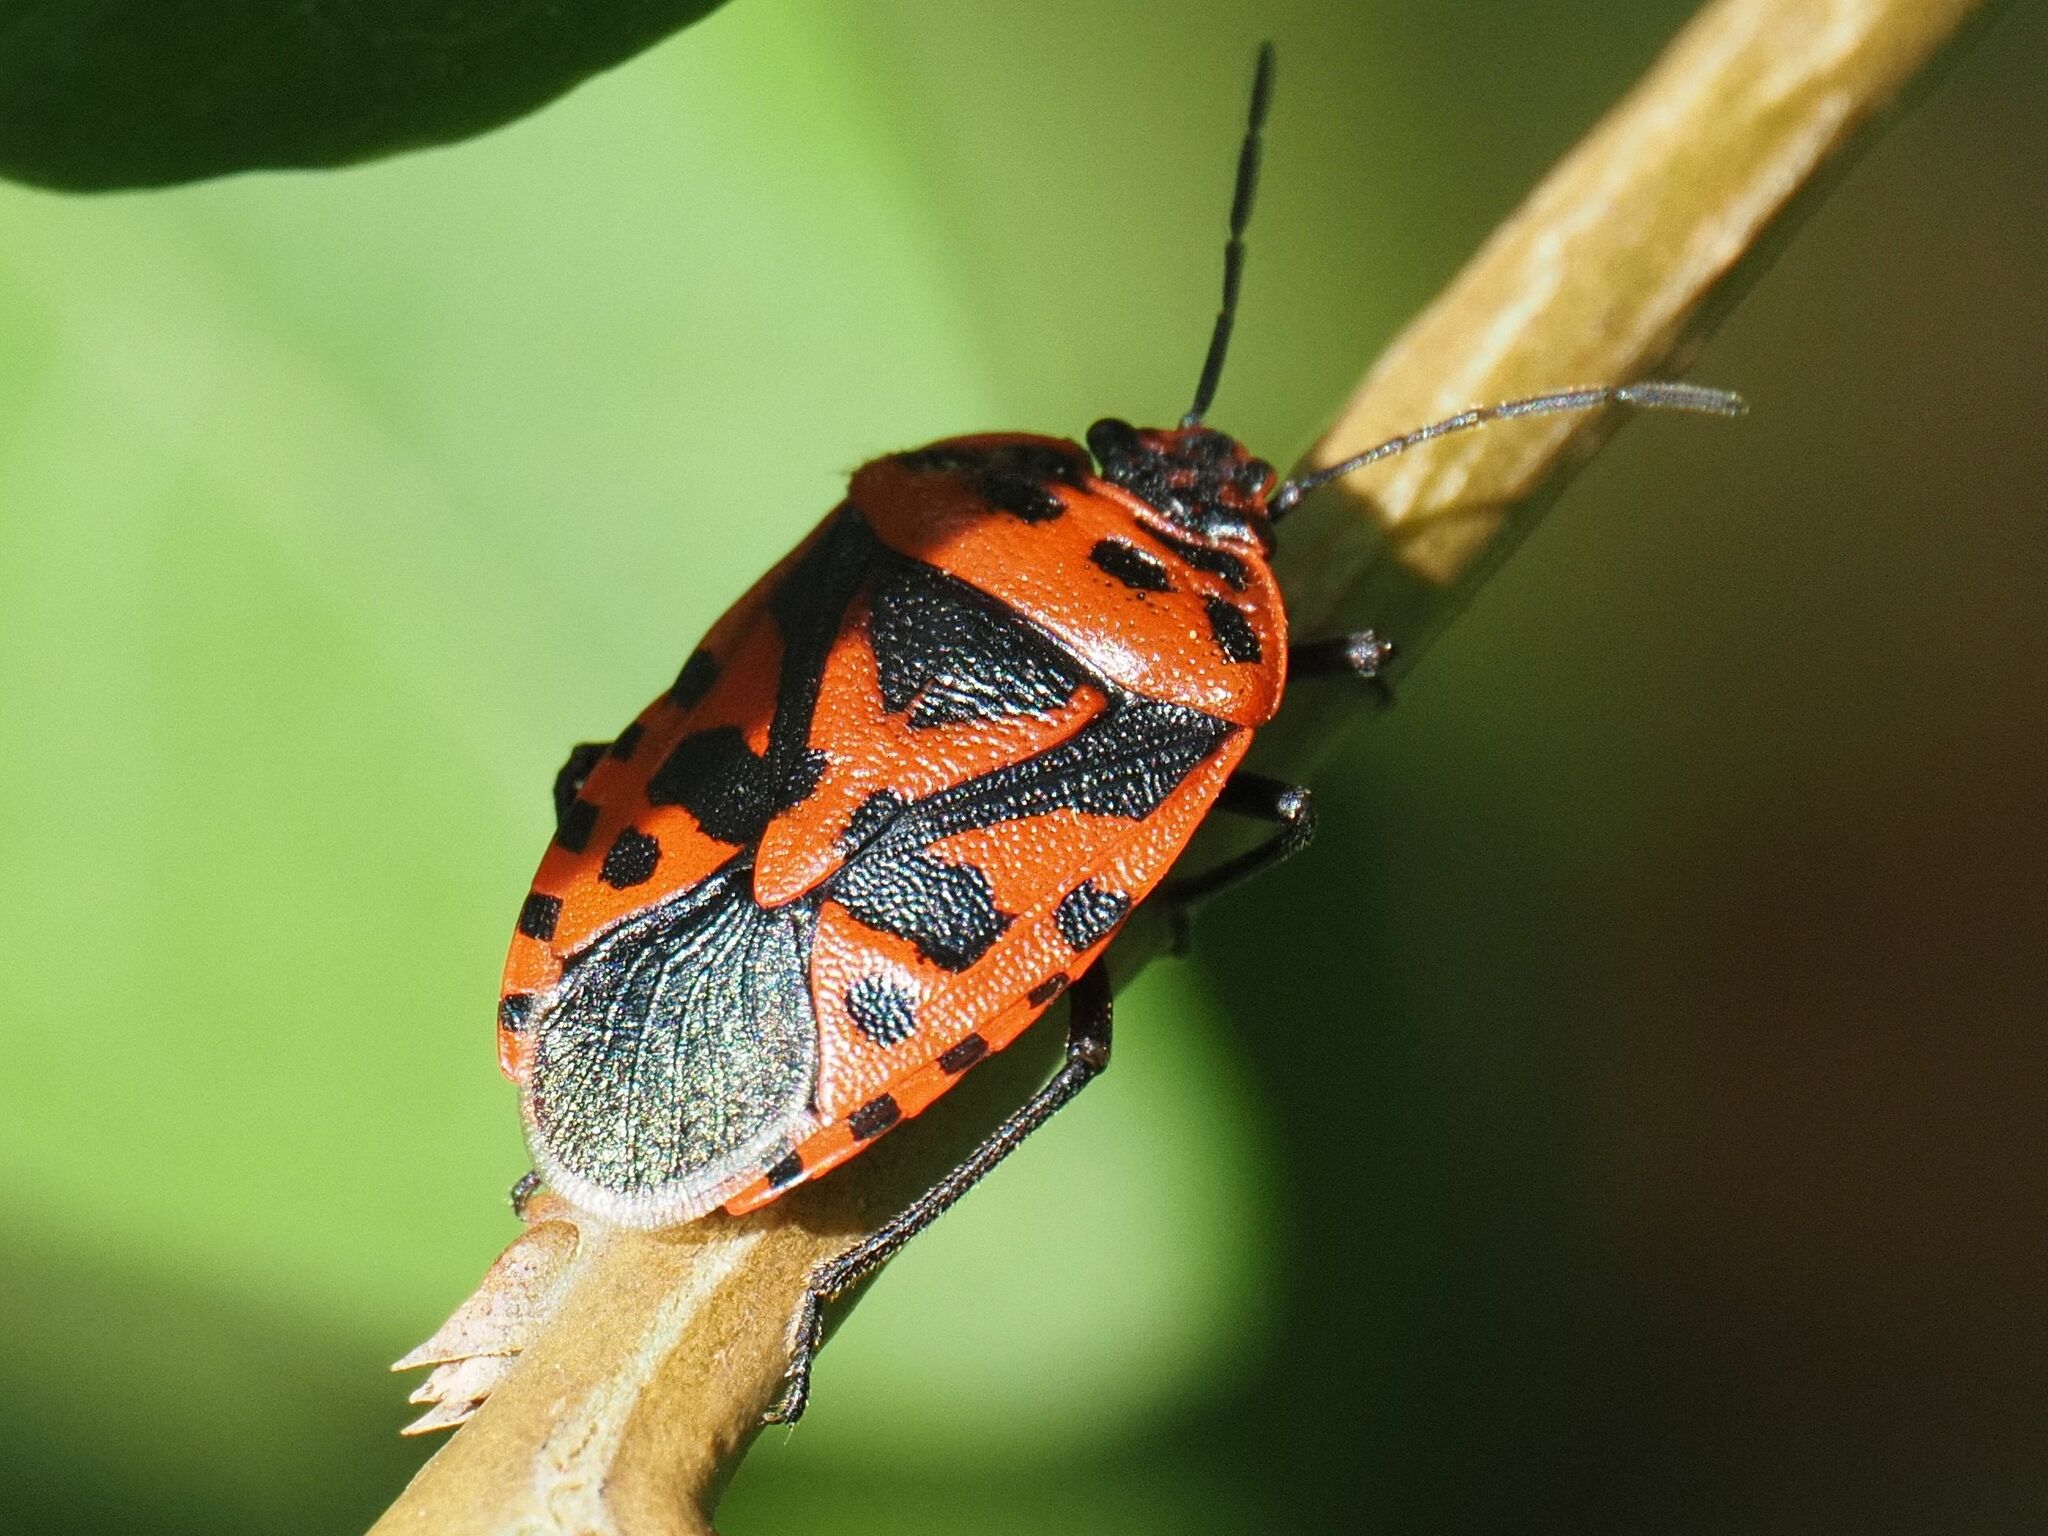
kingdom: Animalia
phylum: Arthropoda
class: Insecta
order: Hemiptera
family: Pentatomidae
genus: Eurydema
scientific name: Eurydema ventralis
